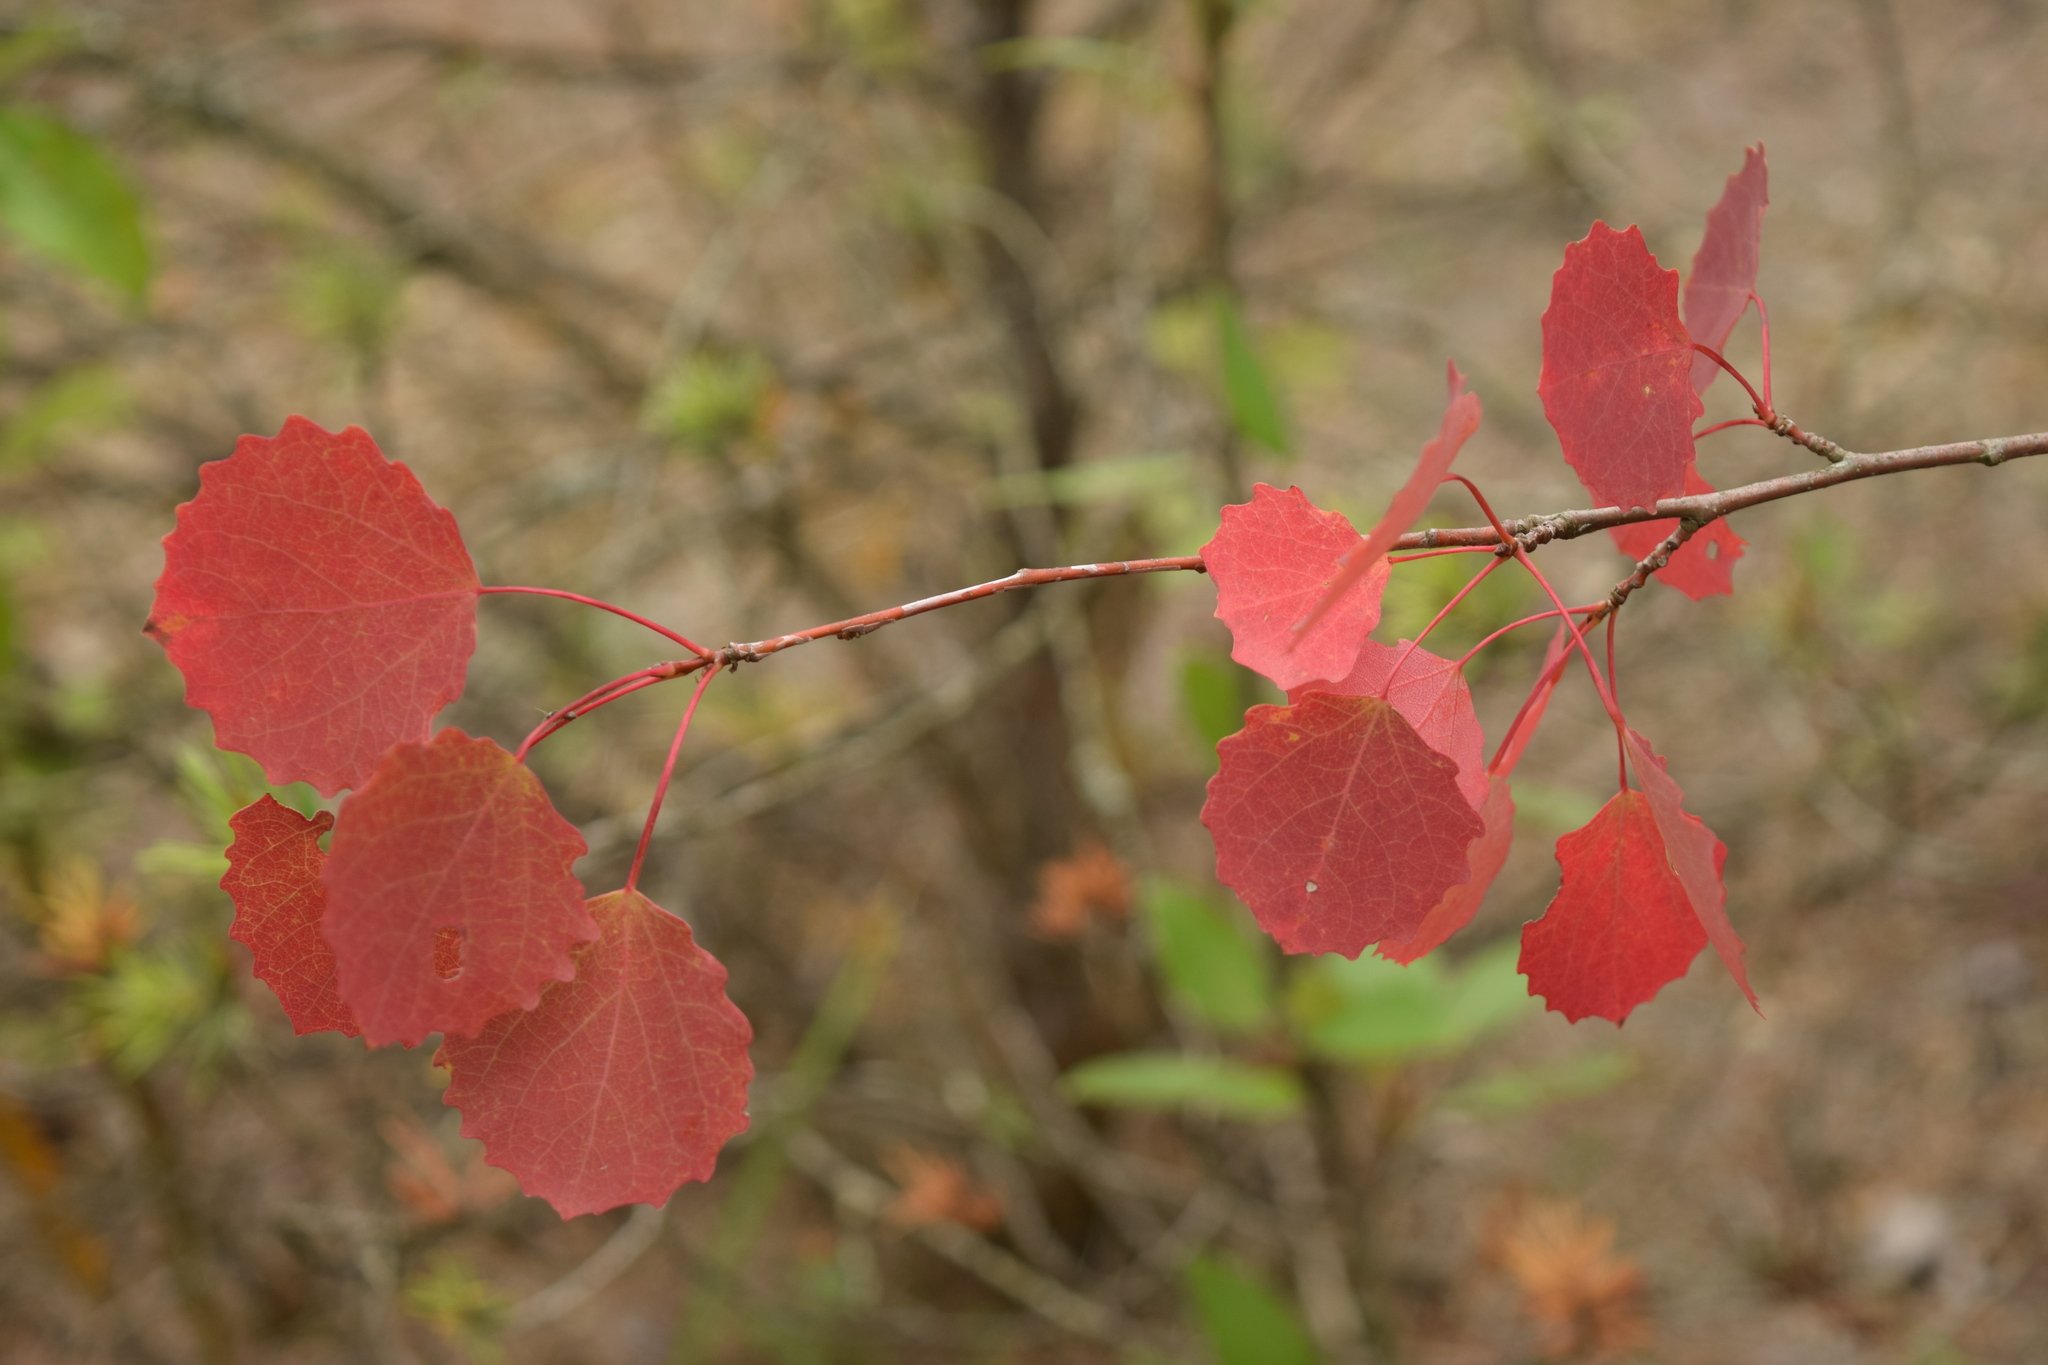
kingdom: Plantae
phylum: Tracheophyta
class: Magnoliopsida
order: Malpighiales
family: Salicaceae
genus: Populus
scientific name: Populus tremula
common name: European aspen
